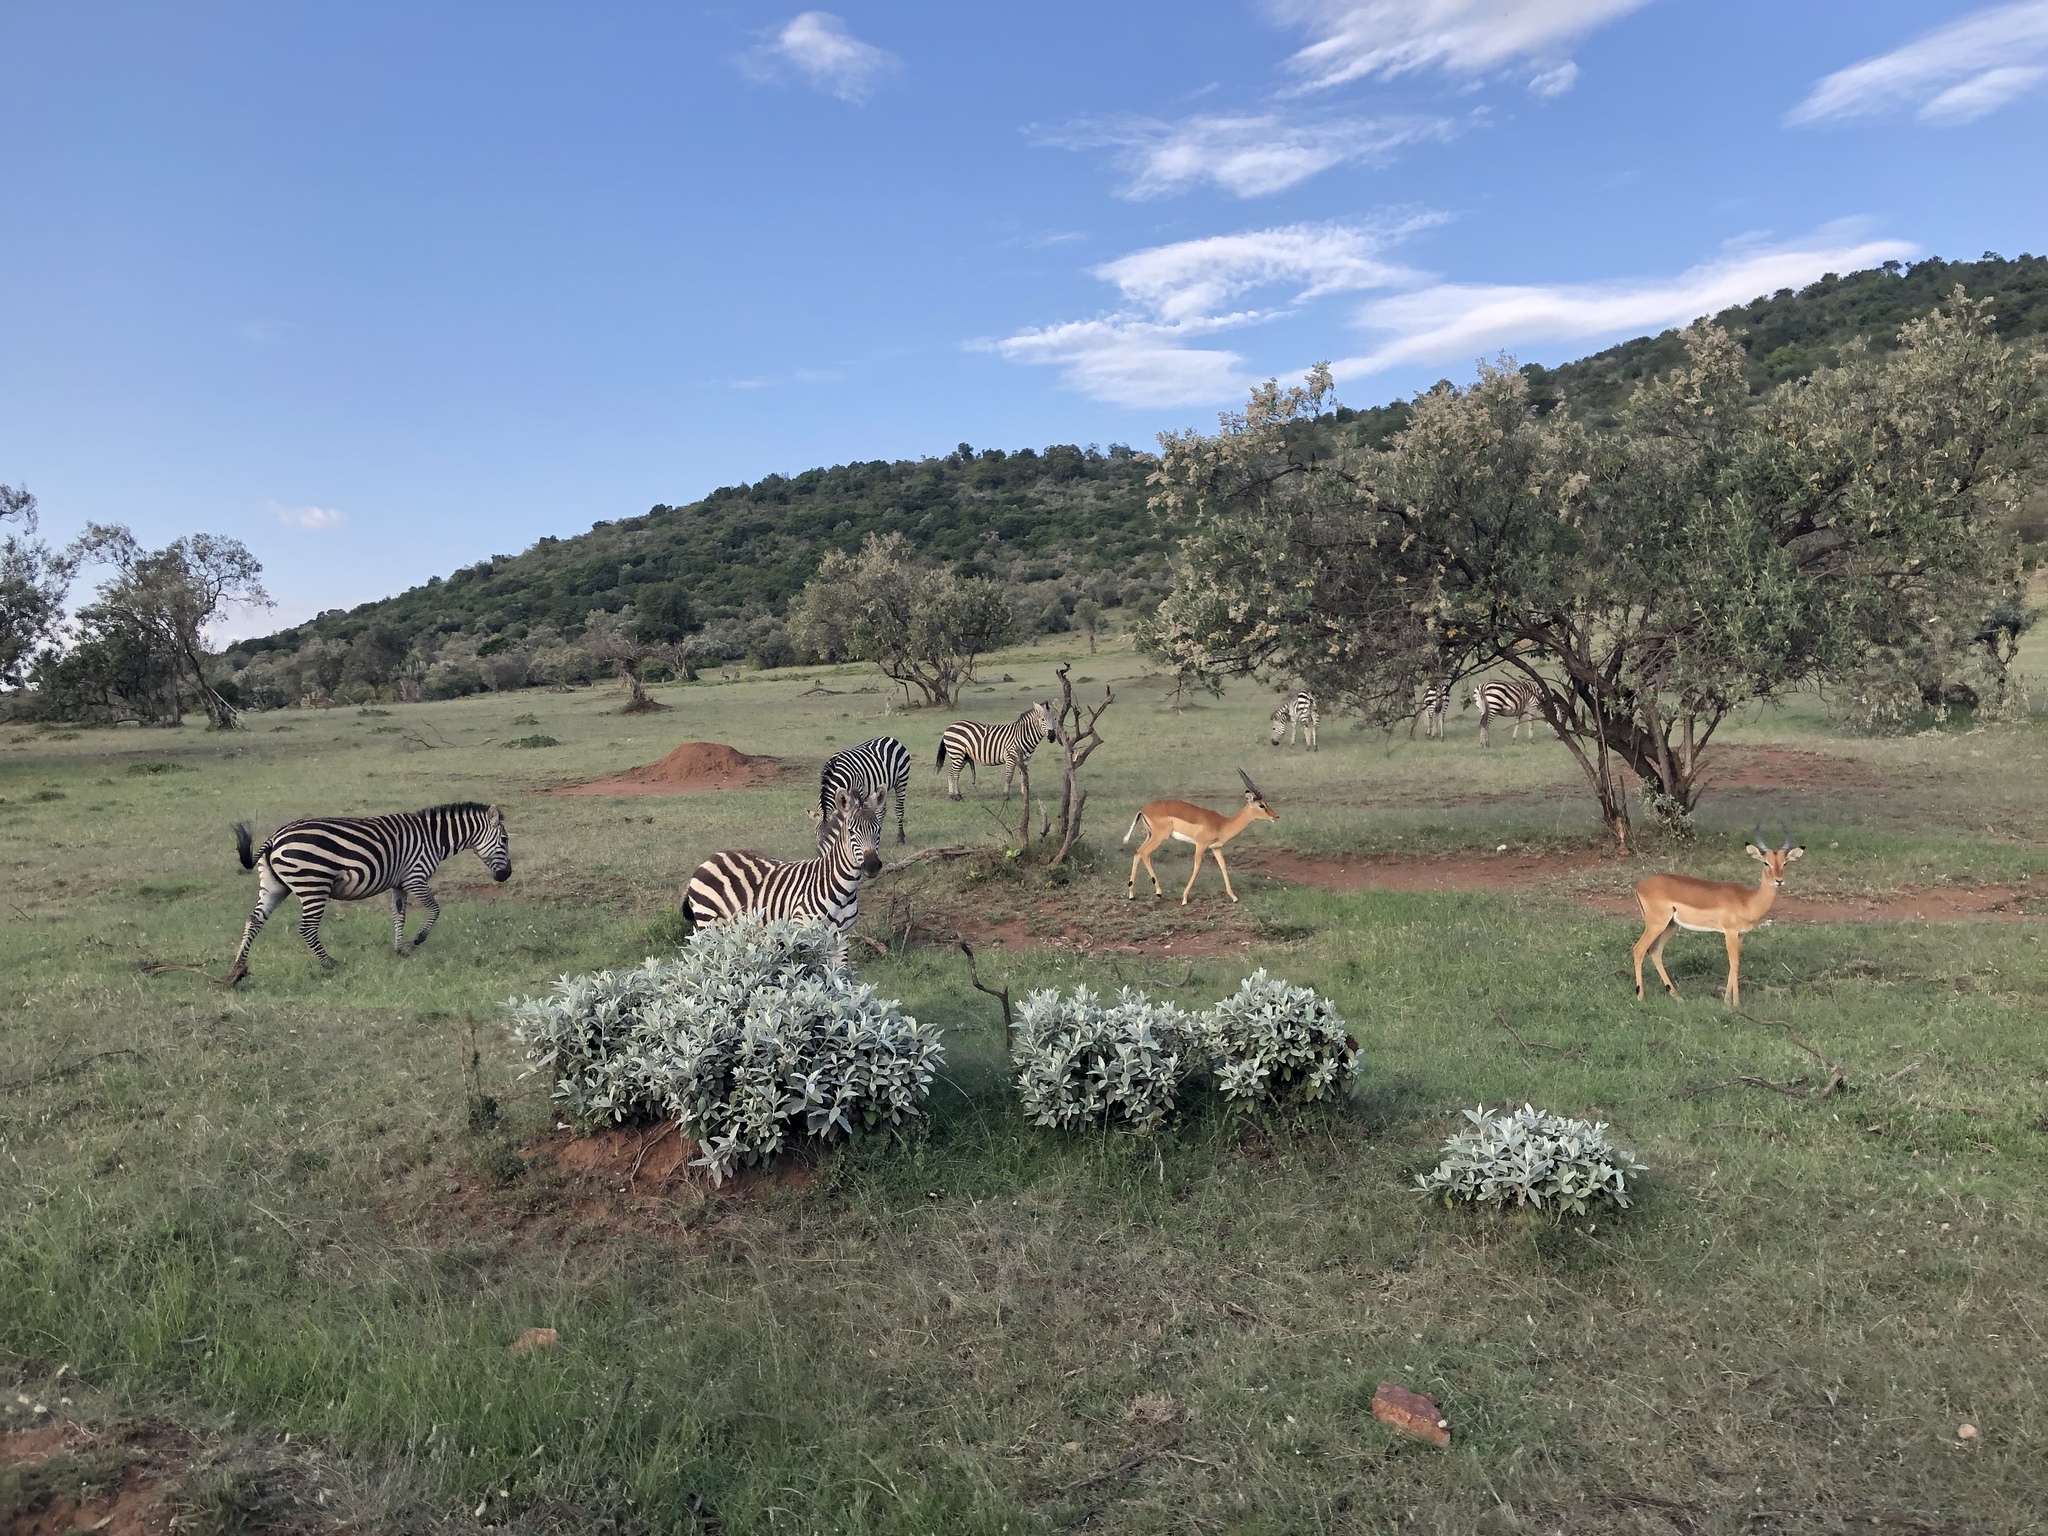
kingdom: Animalia
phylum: Chordata
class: Mammalia
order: Artiodactyla
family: Bovidae
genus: Aepyceros
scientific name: Aepyceros melampus
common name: Impala
